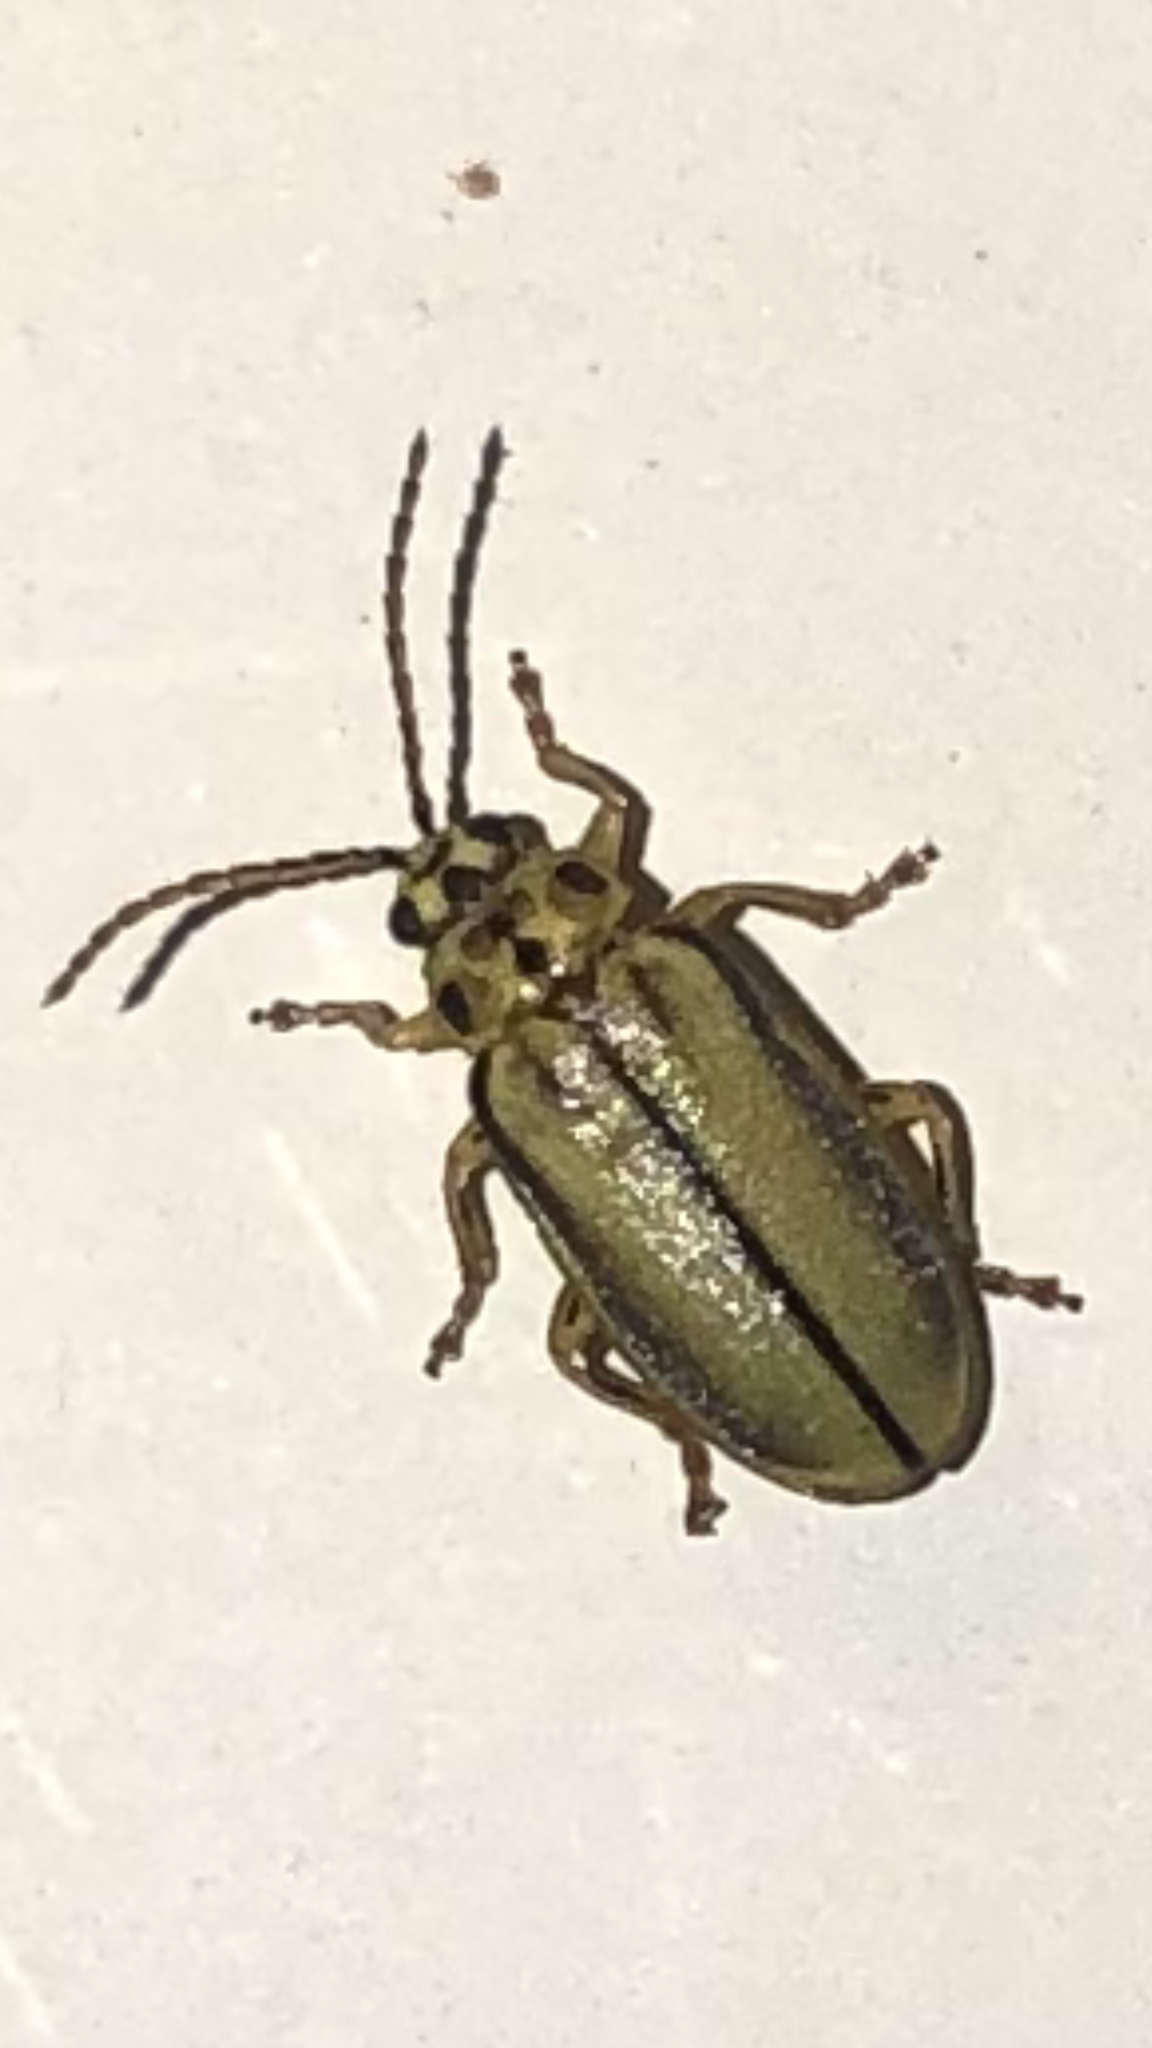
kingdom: Animalia
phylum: Arthropoda
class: Insecta
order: Coleoptera
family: Chrysomelidae
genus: Xanthogaleruca
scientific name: Xanthogaleruca luteola
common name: Elm leaf beetle
